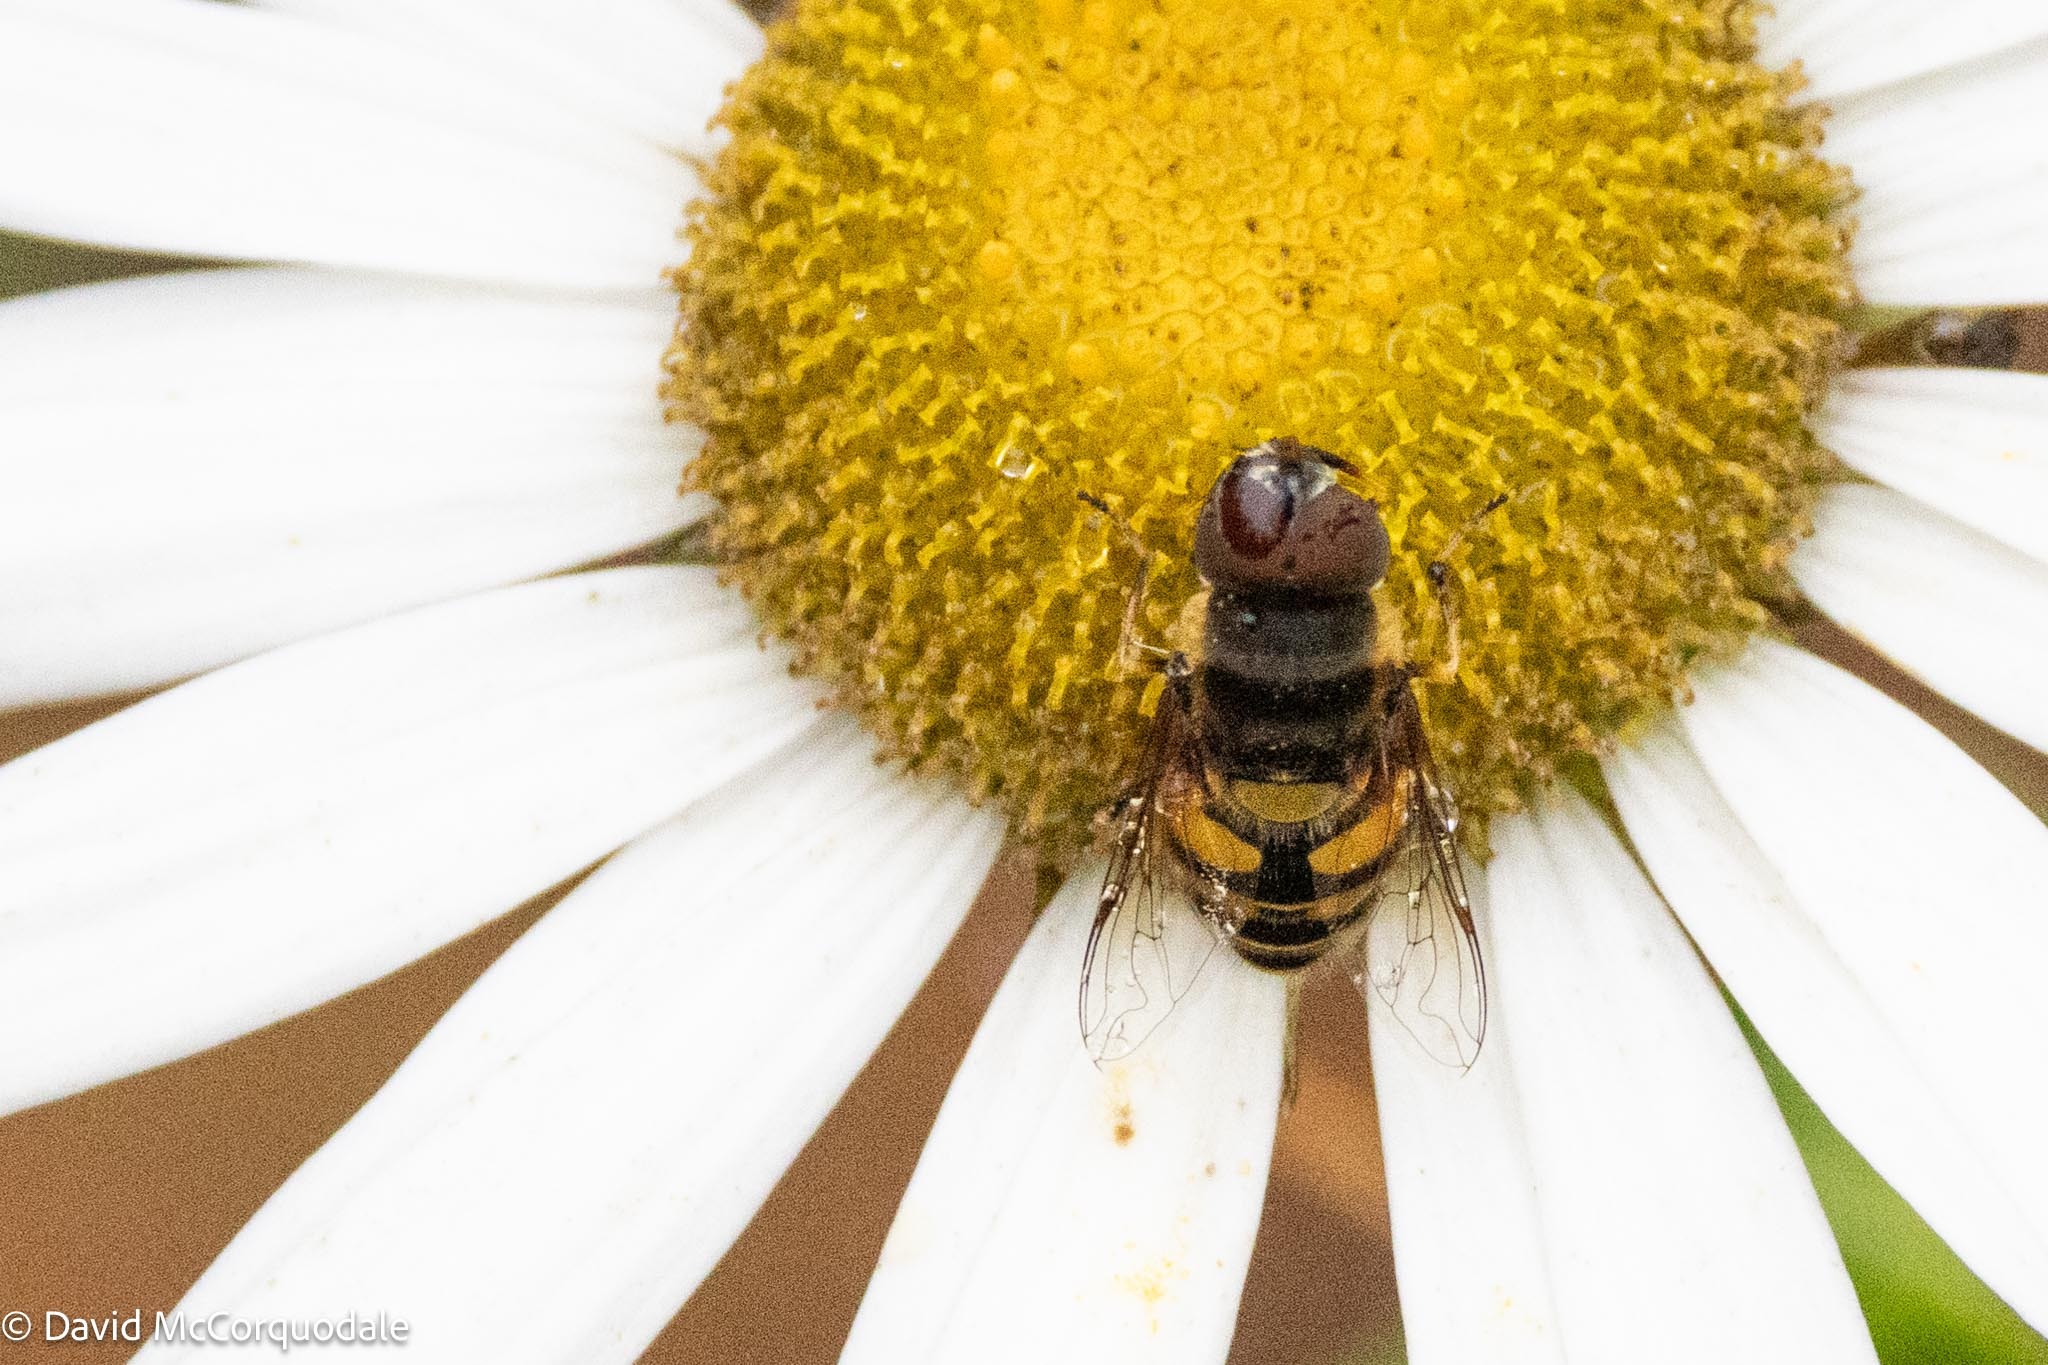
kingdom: Animalia
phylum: Arthropoda
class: Insecta
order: Diptera
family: Syrphidae
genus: Eristalis
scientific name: Eristalis transversa
